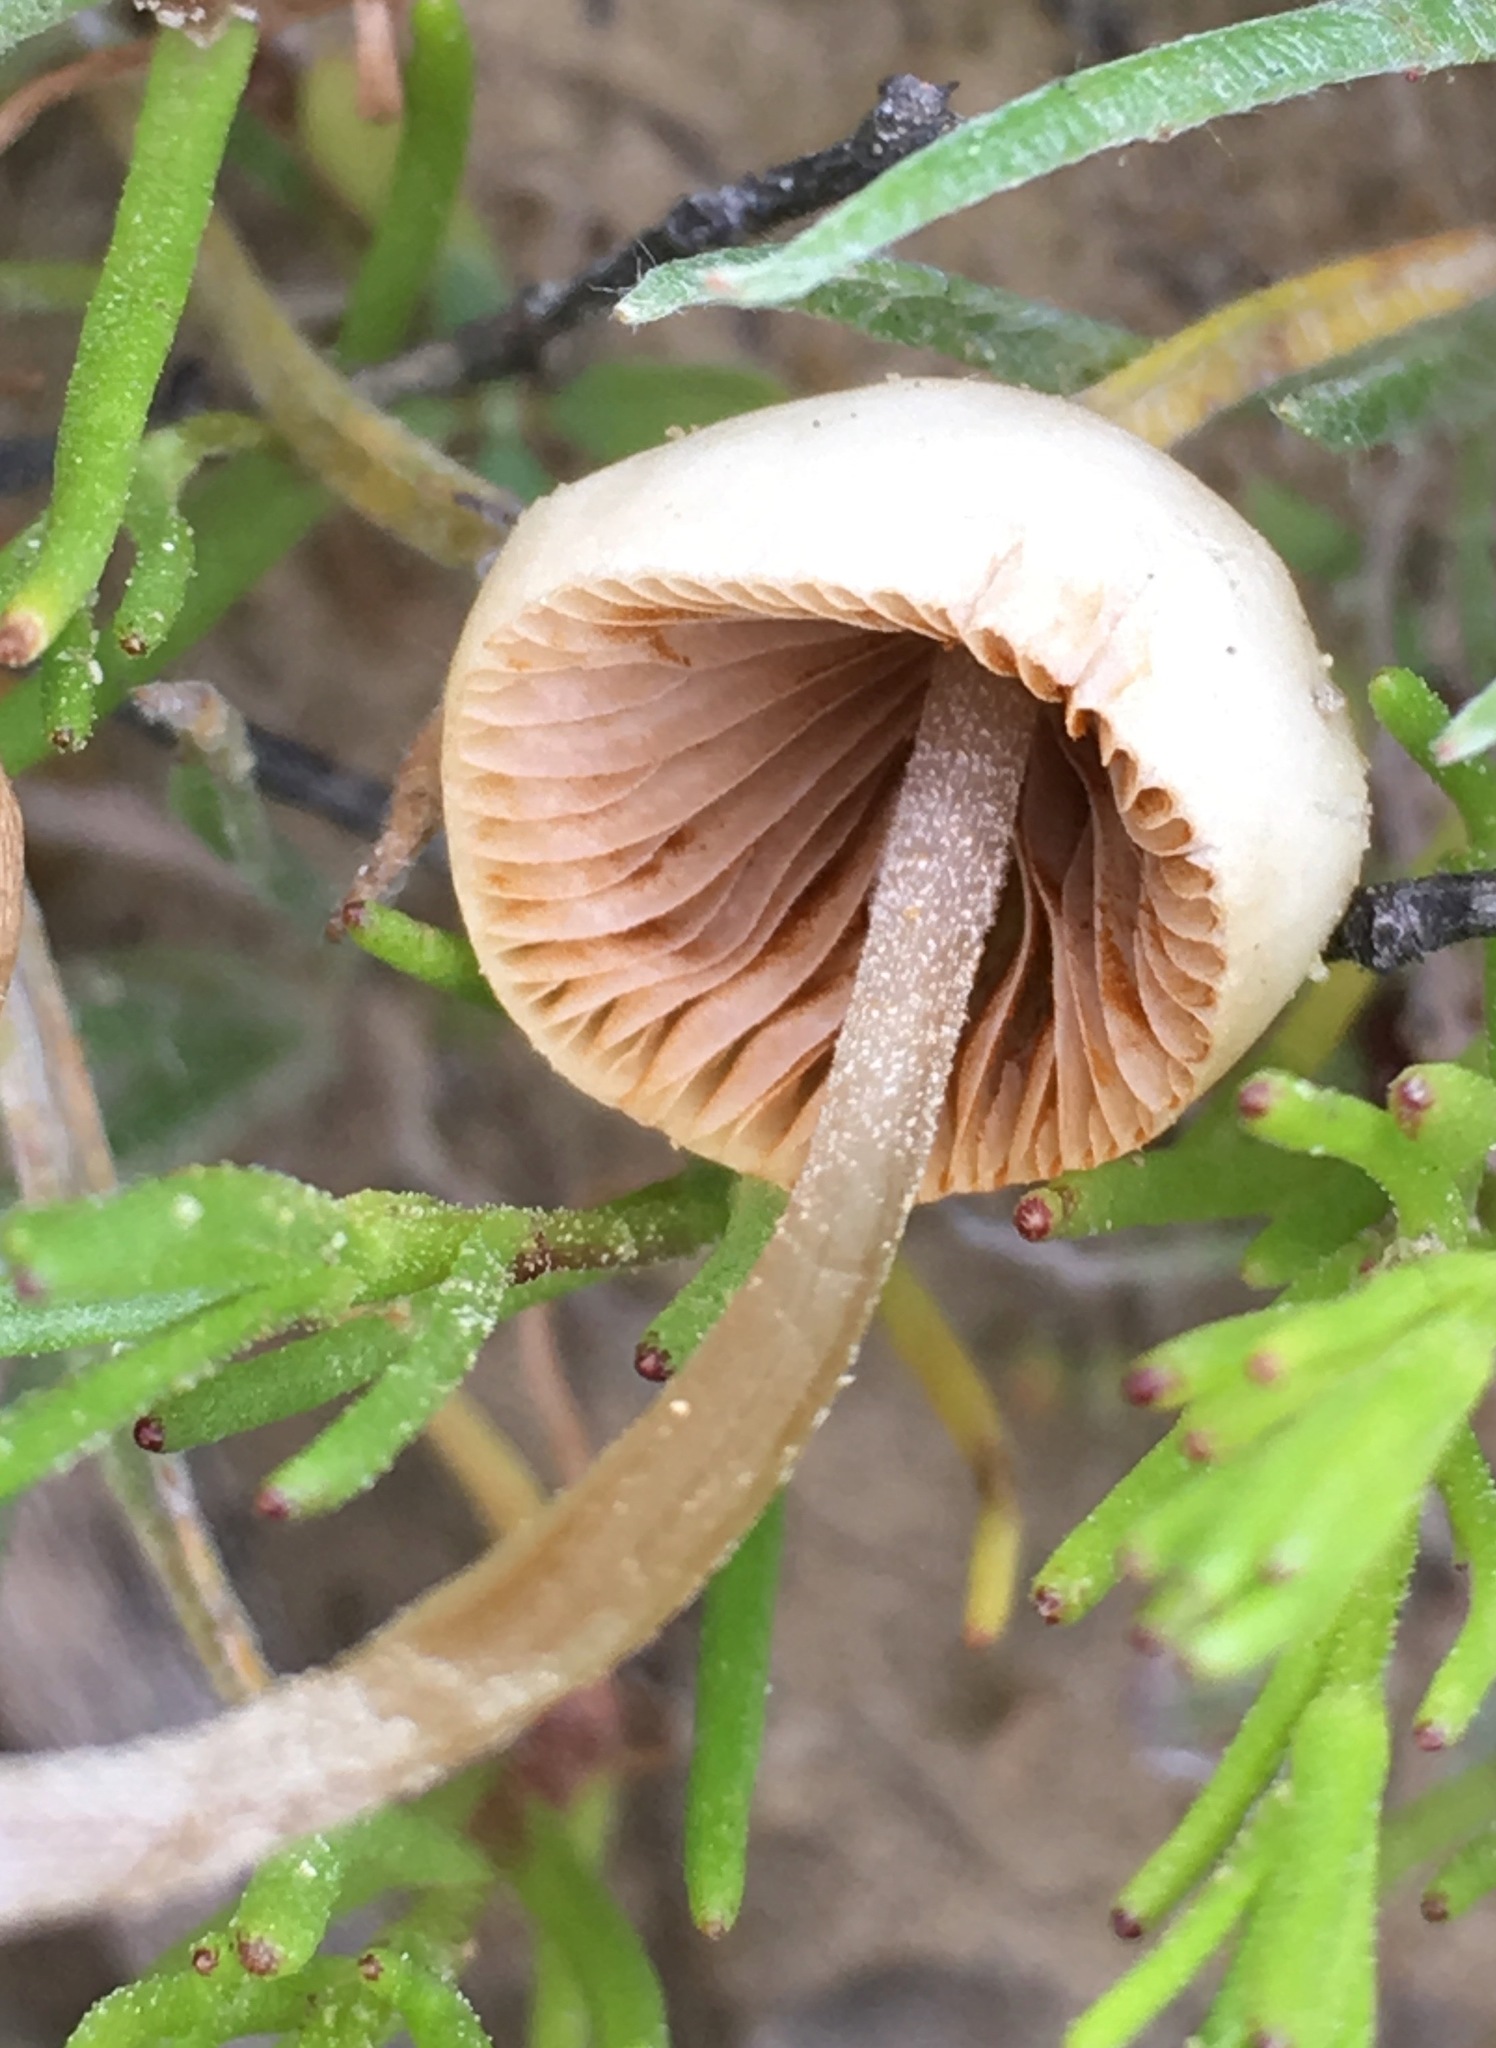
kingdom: Fungi
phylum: Basidiomycota
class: Agaricomycetes
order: Agaricales
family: Bolbitiaceae
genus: Conocybe
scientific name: Conocybe apala
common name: Milky conecap
